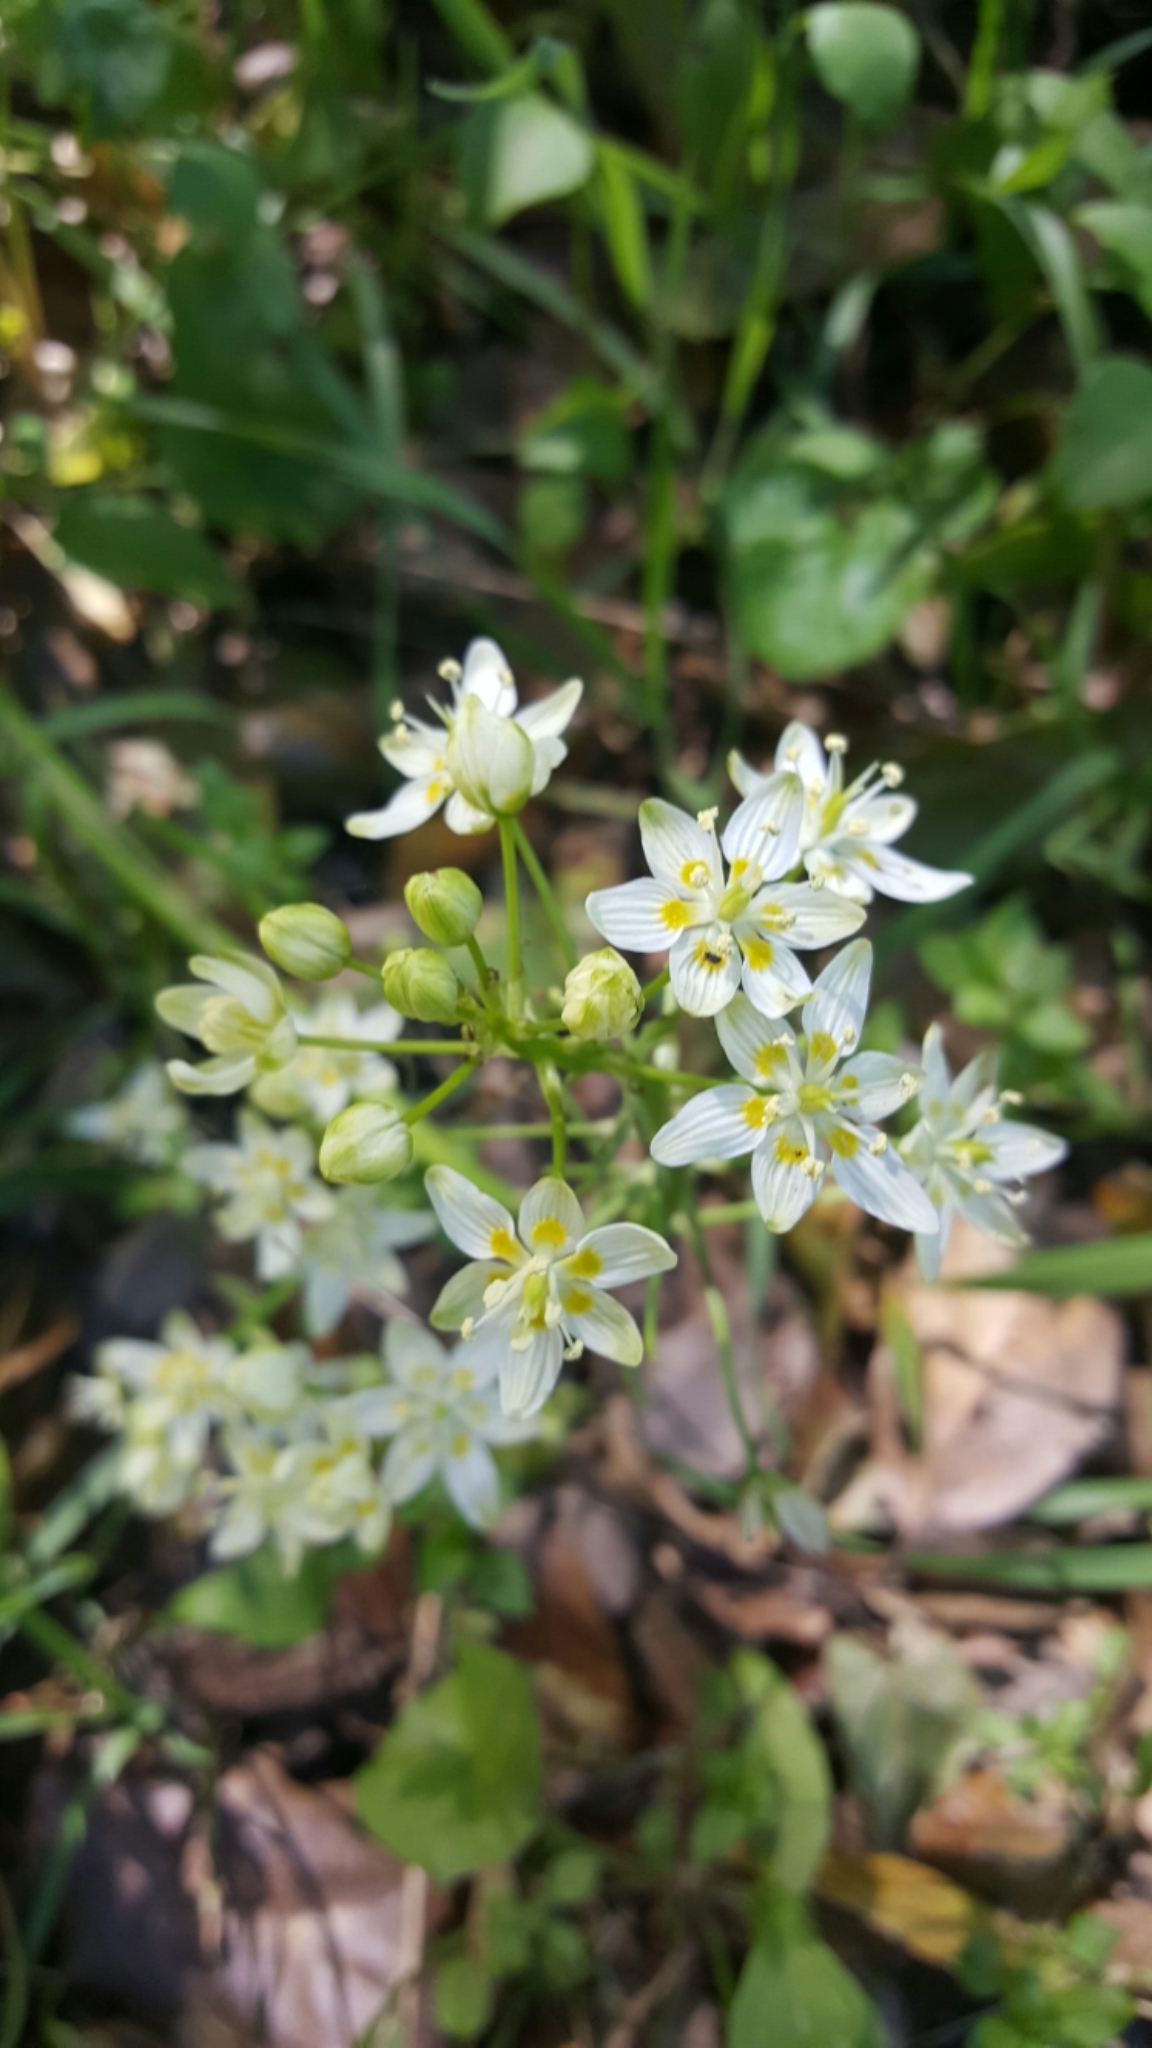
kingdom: Plantae
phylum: Tracheophyta
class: Liliopsida
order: Liliales
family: Melanthiaceae
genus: Toxicoscordion
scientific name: Toxicoscordion fremontii
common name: Fremont's death camas
